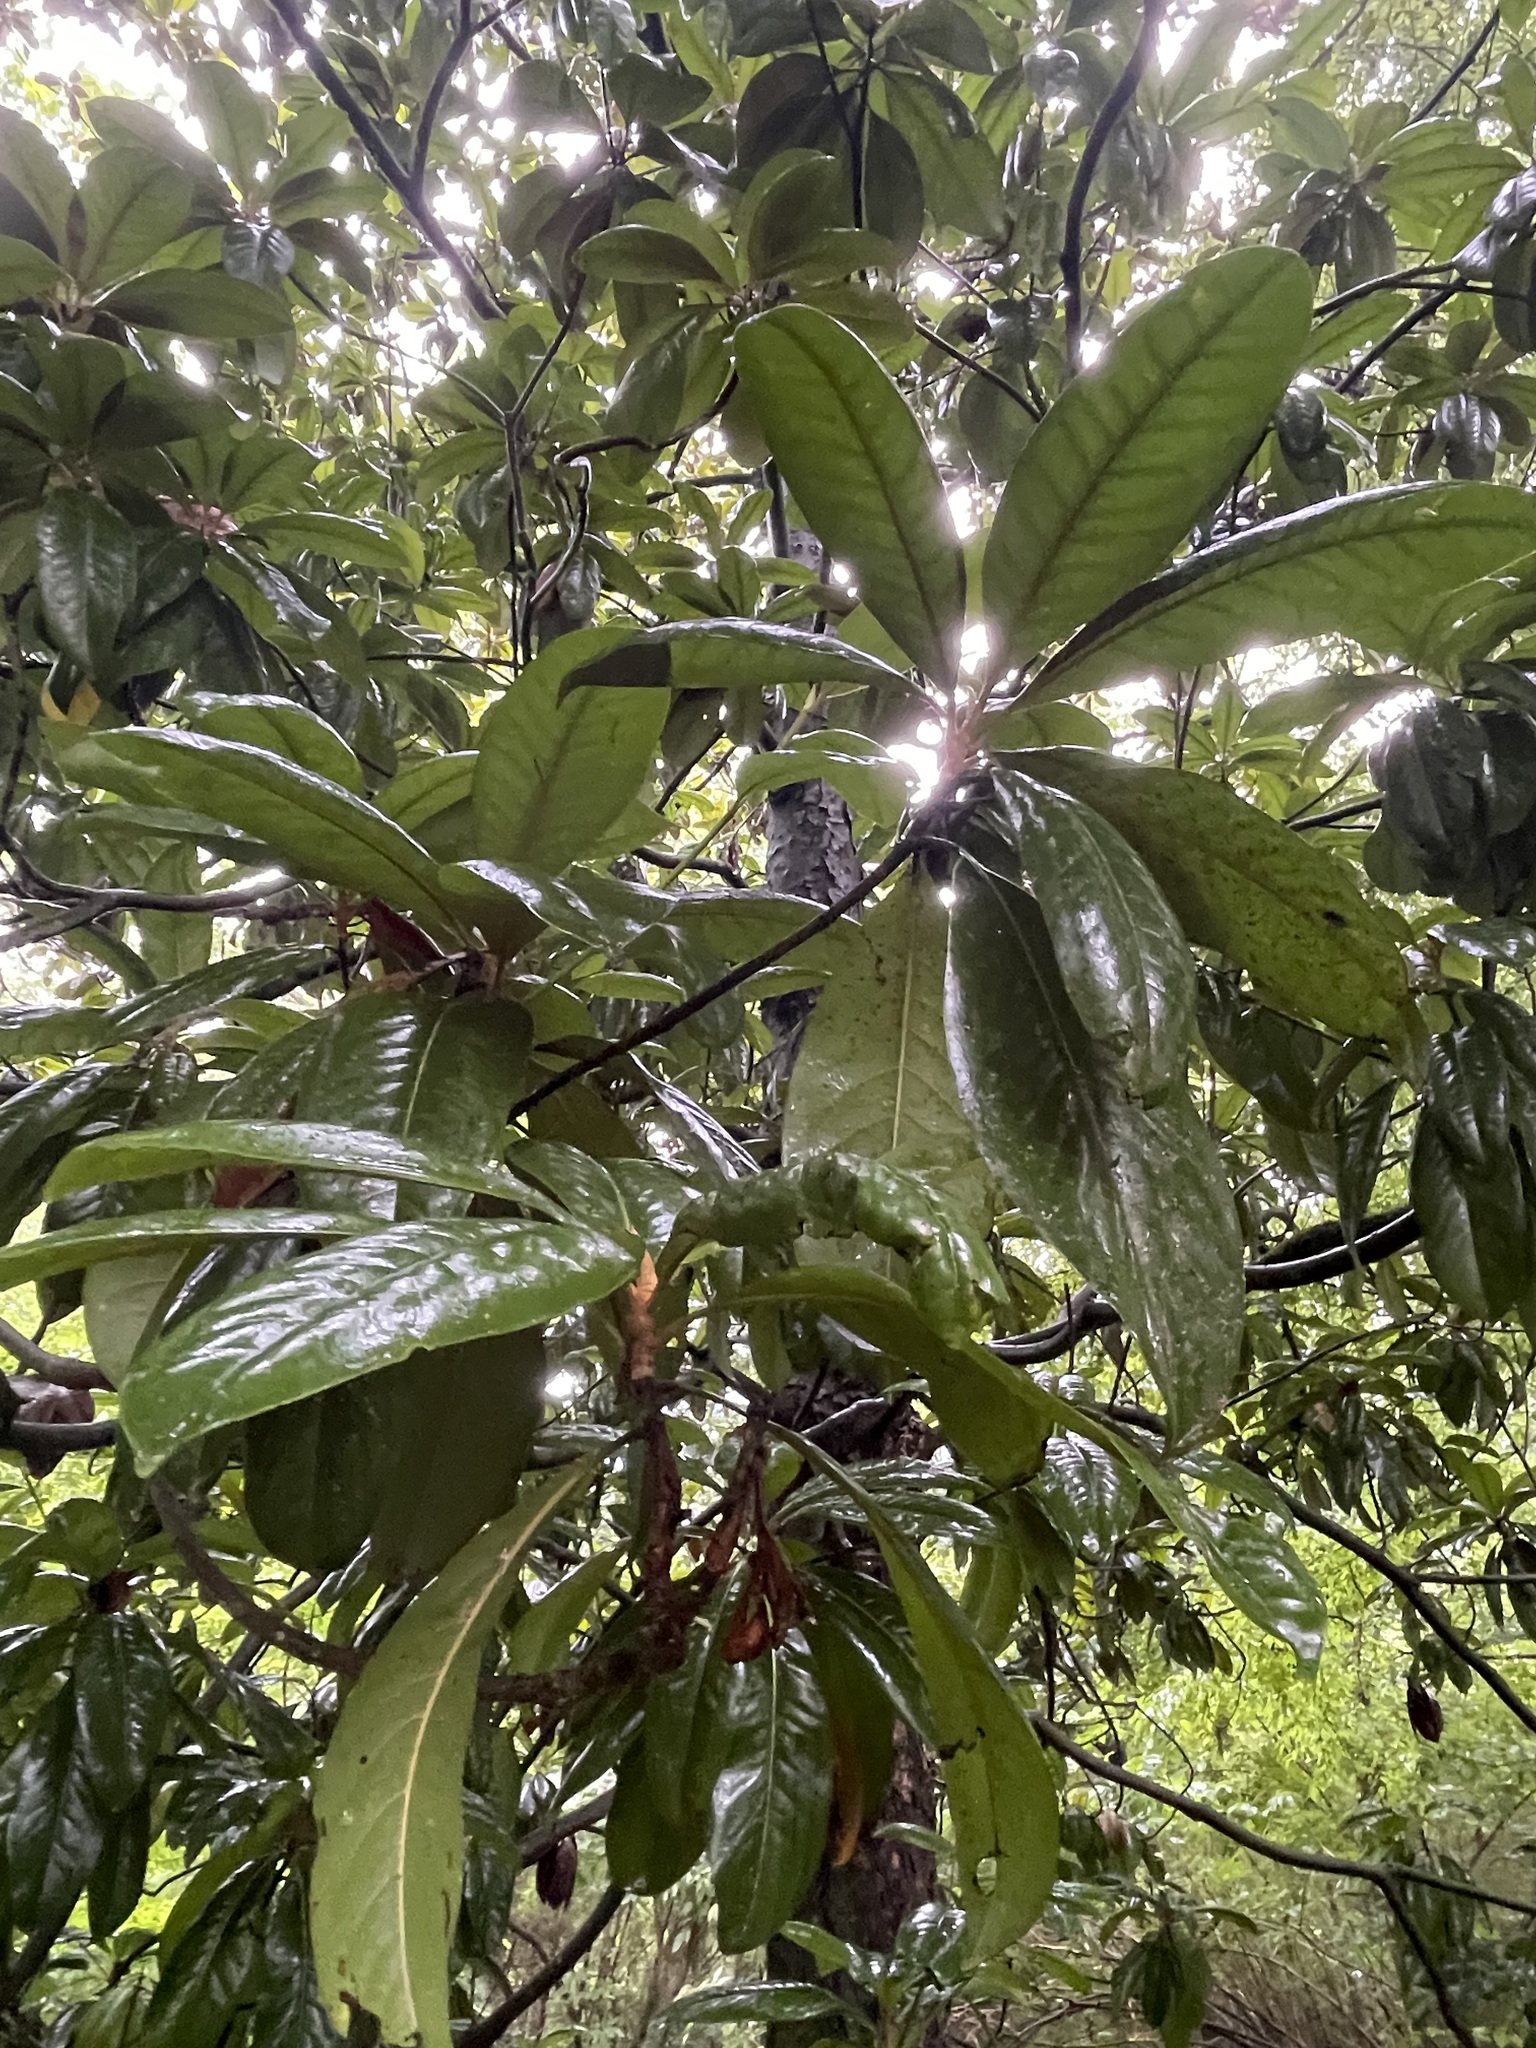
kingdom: Plantae
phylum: Tracheophyta
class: Magnoliopsida
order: Magnoliales
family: Magnoliaceae
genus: Magnolia
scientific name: Magnolia grandiflora
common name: Southern magnolia
